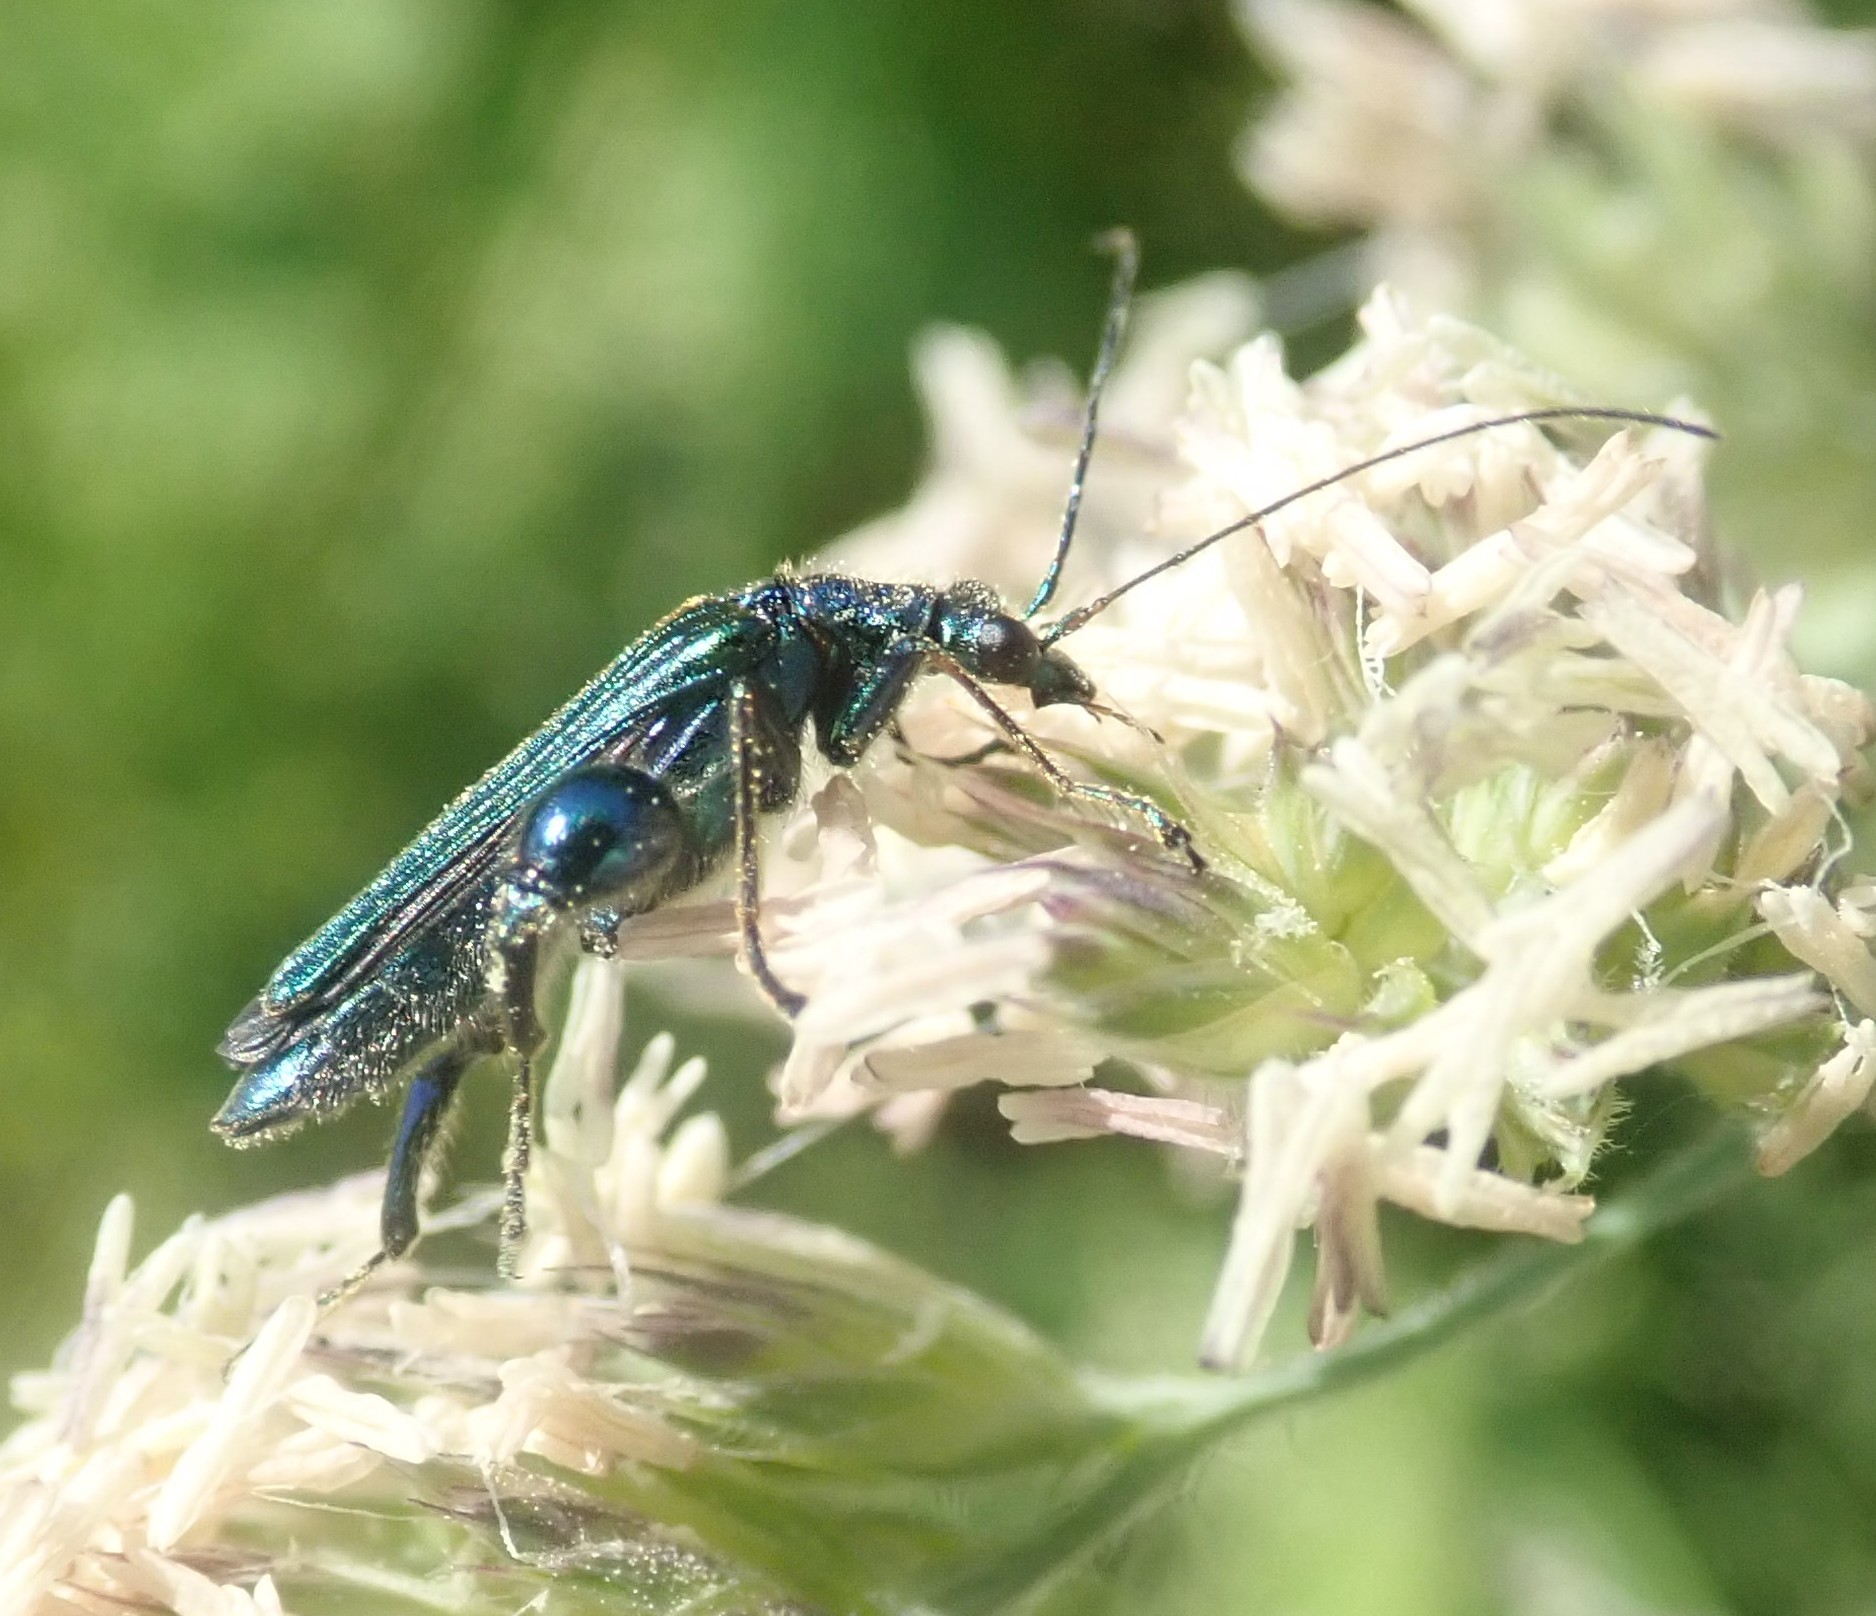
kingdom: Animalia
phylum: Arthropoda
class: Insecta
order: Coleoptera
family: Oedemeridae
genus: Oedemera
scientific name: Oedemera nobilis
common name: Swollen-thighed beetle
